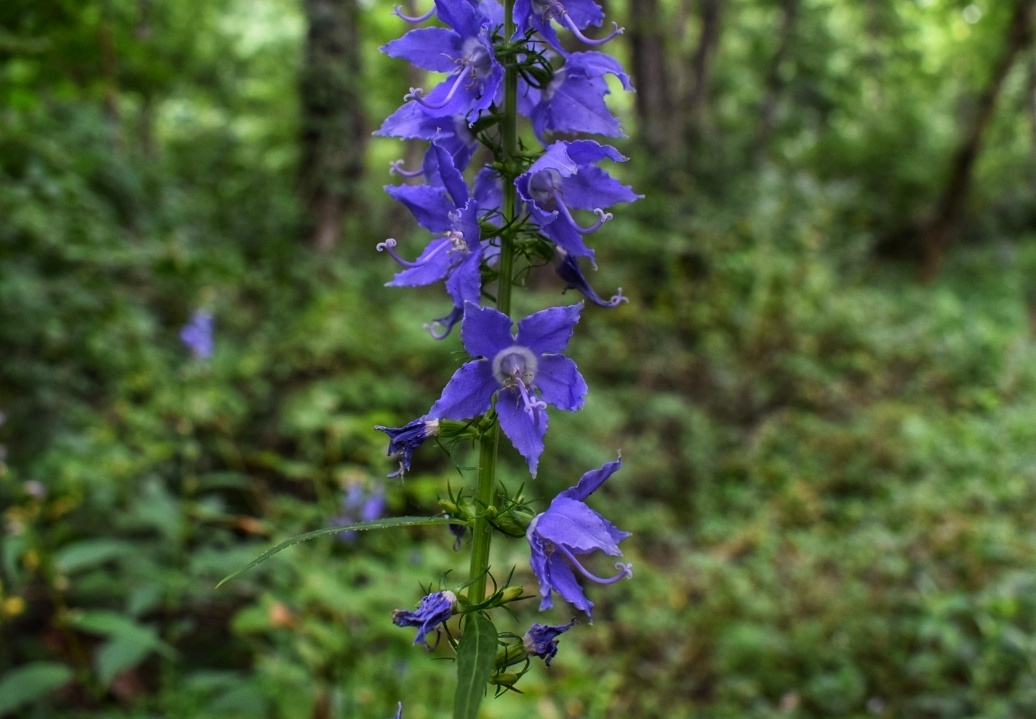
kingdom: Plantae
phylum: Tracheophyta
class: Magnoliopsida
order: Asterales
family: Campanulaceae
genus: Campanulastrum
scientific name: Campanulastrum americanum
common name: American bellflower
